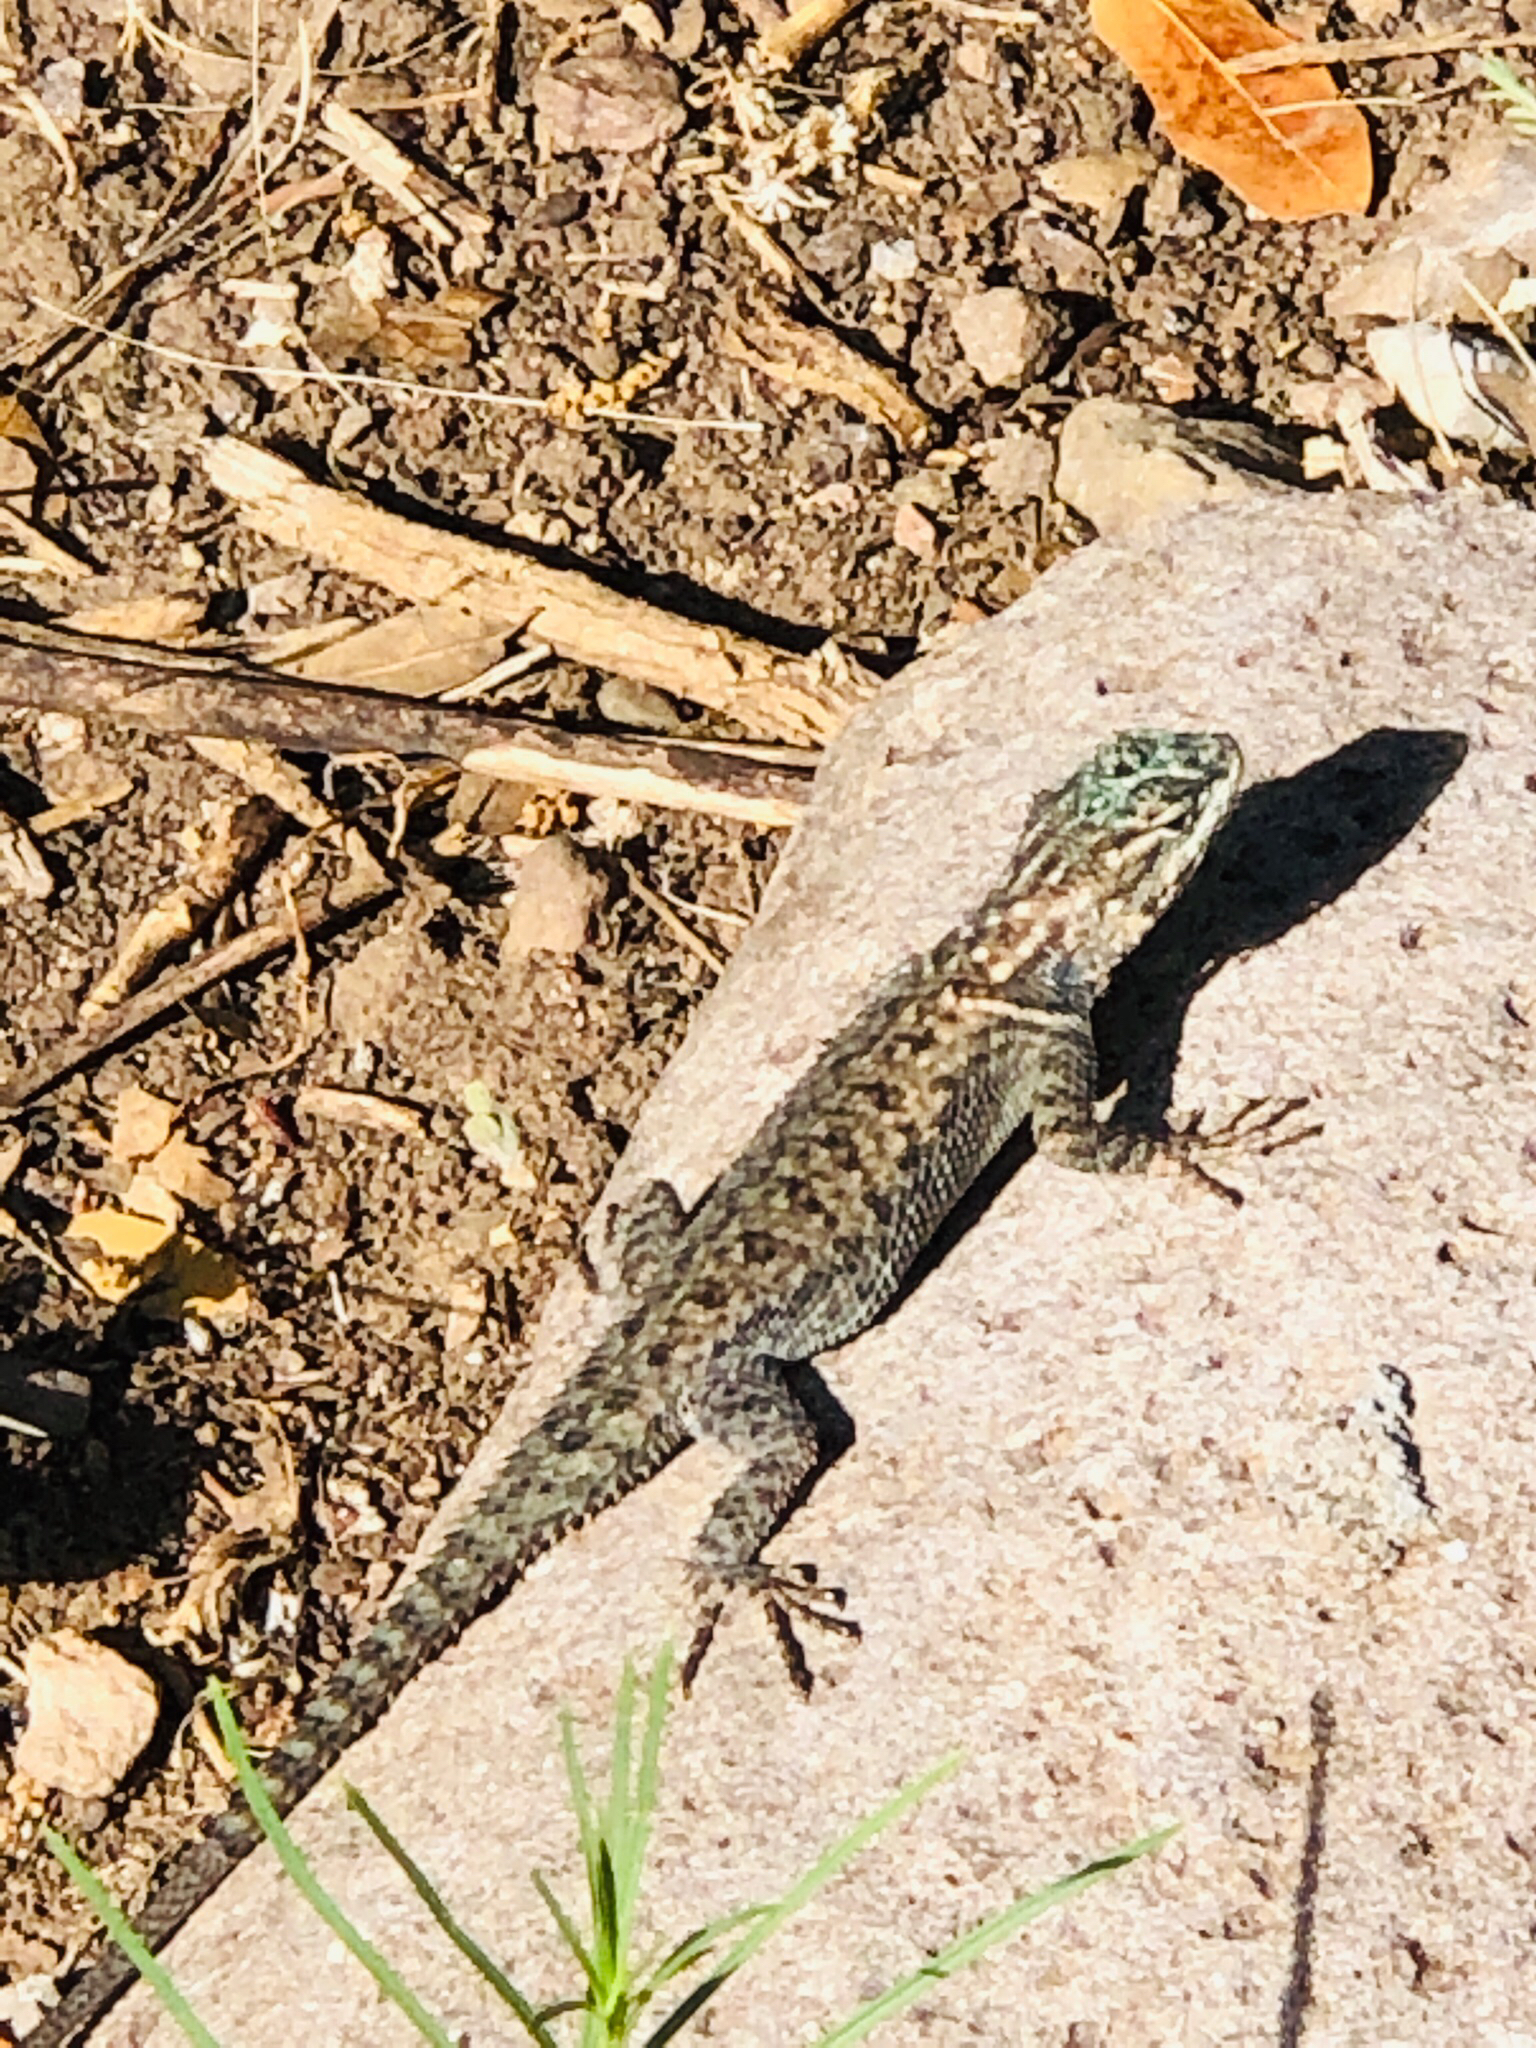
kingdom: Animalia
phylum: Chordata
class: Squamata
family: Phrynosomatidae
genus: Sceloporus
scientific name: Sceloporus jarrovii
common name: Yarrow's spiny lizard
